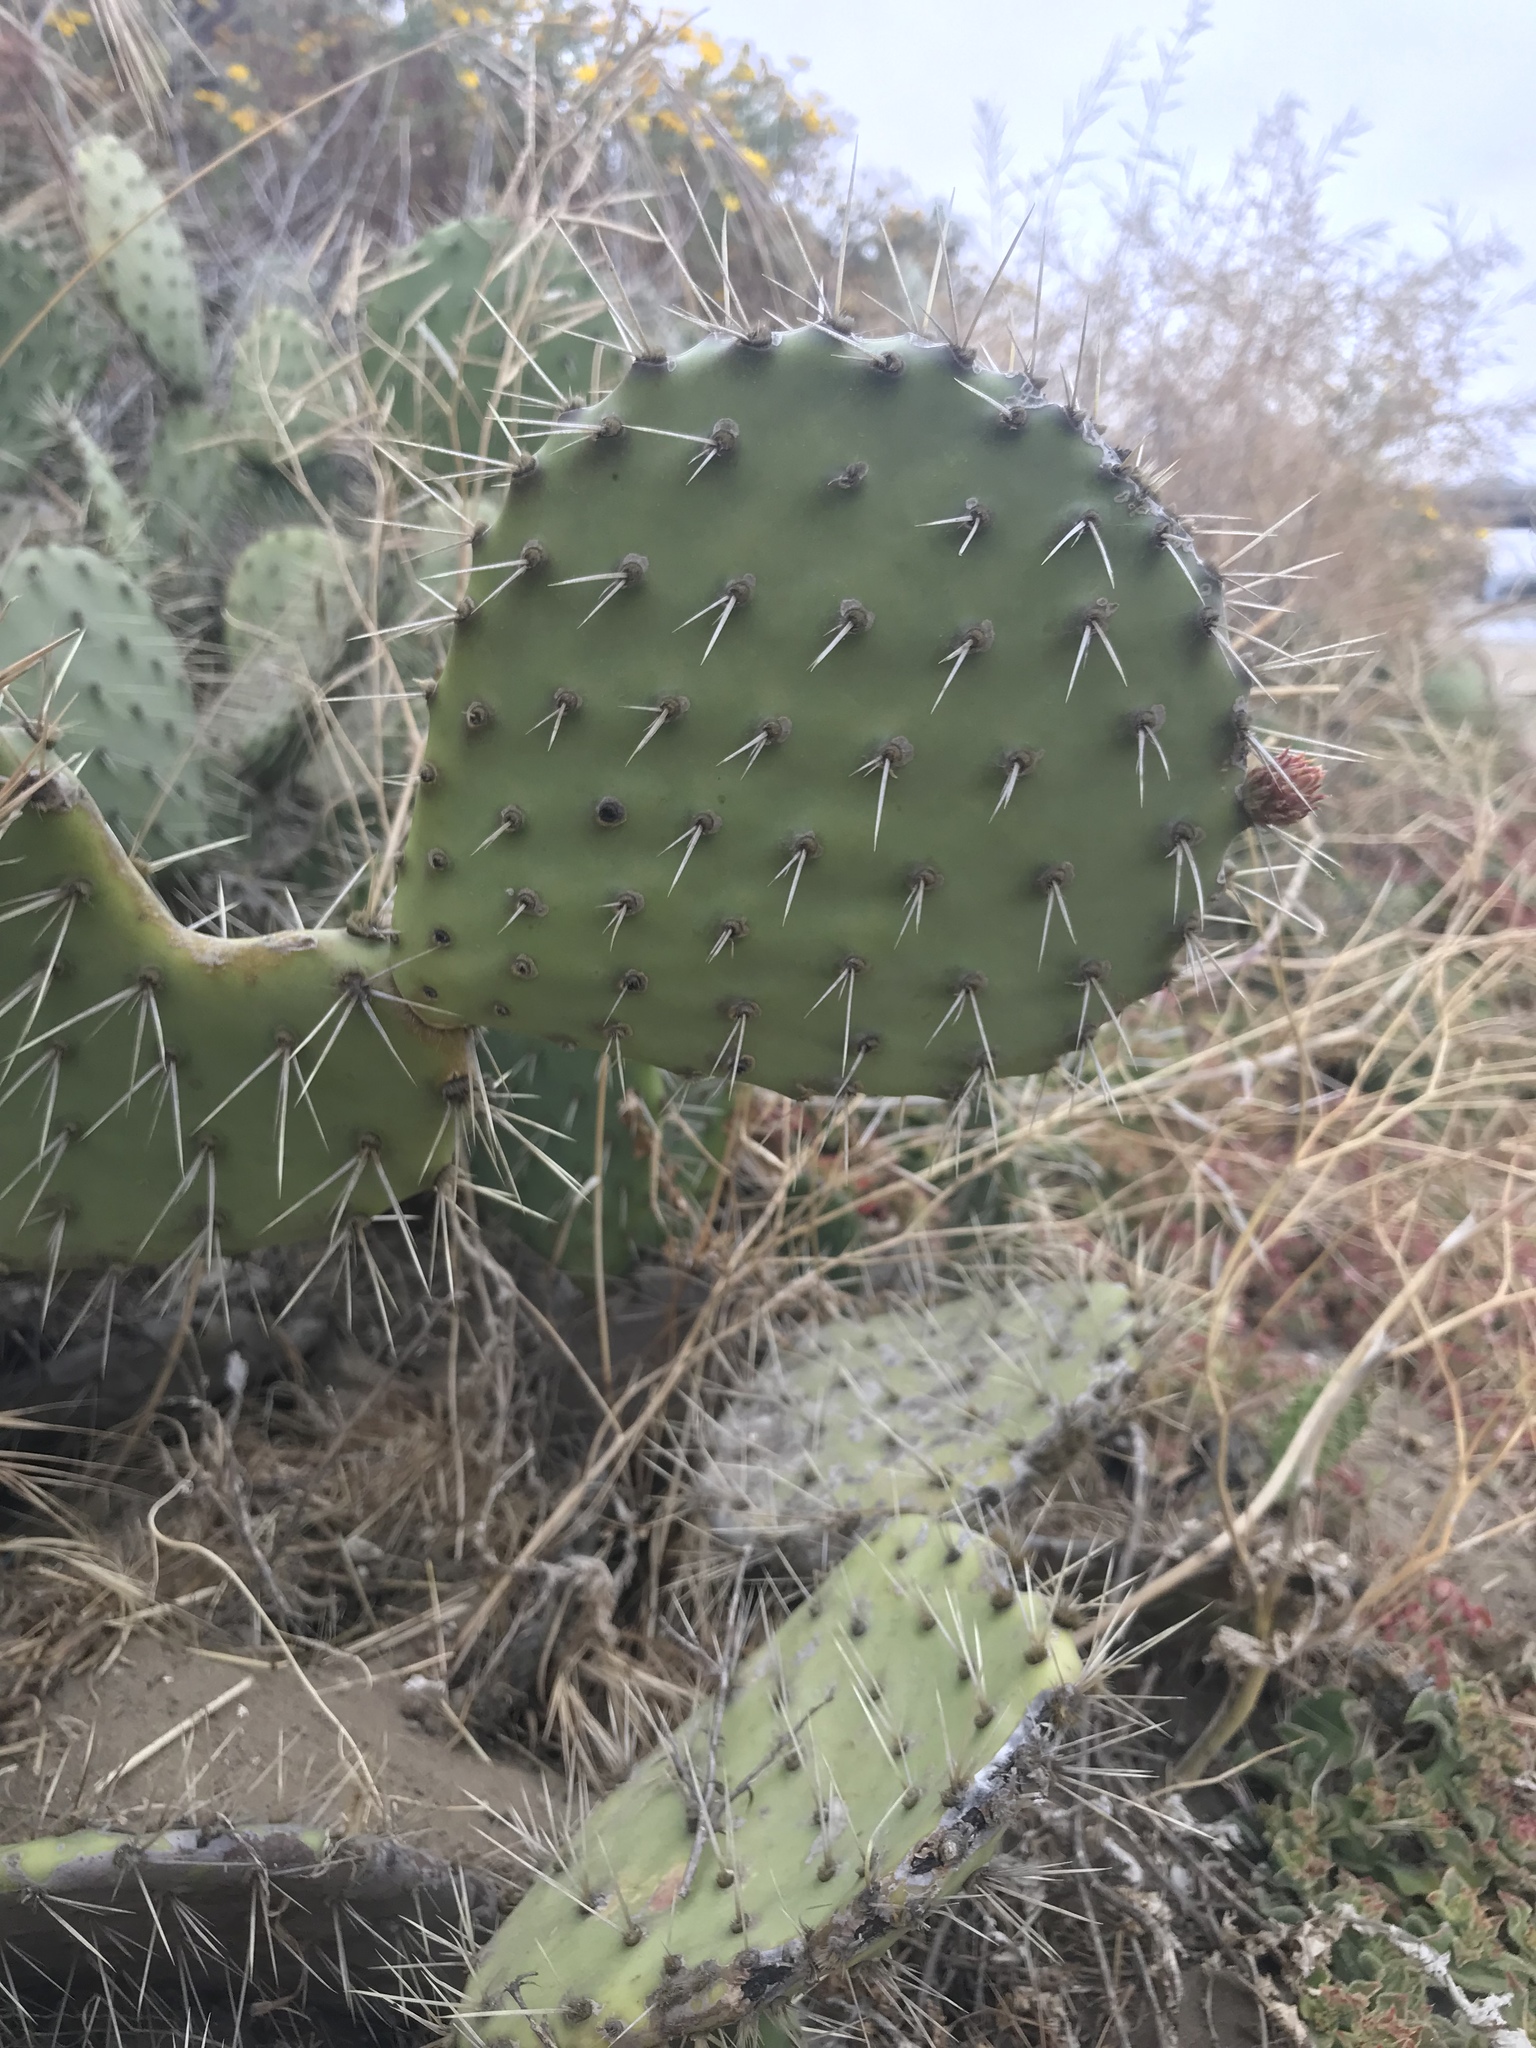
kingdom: Plantae
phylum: Tracheophyta
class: Magnoliopsida
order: Caryophyllales
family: Cactaceae
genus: Opuntia
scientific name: Opuntia oricola
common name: Chaparral prickly-pear
